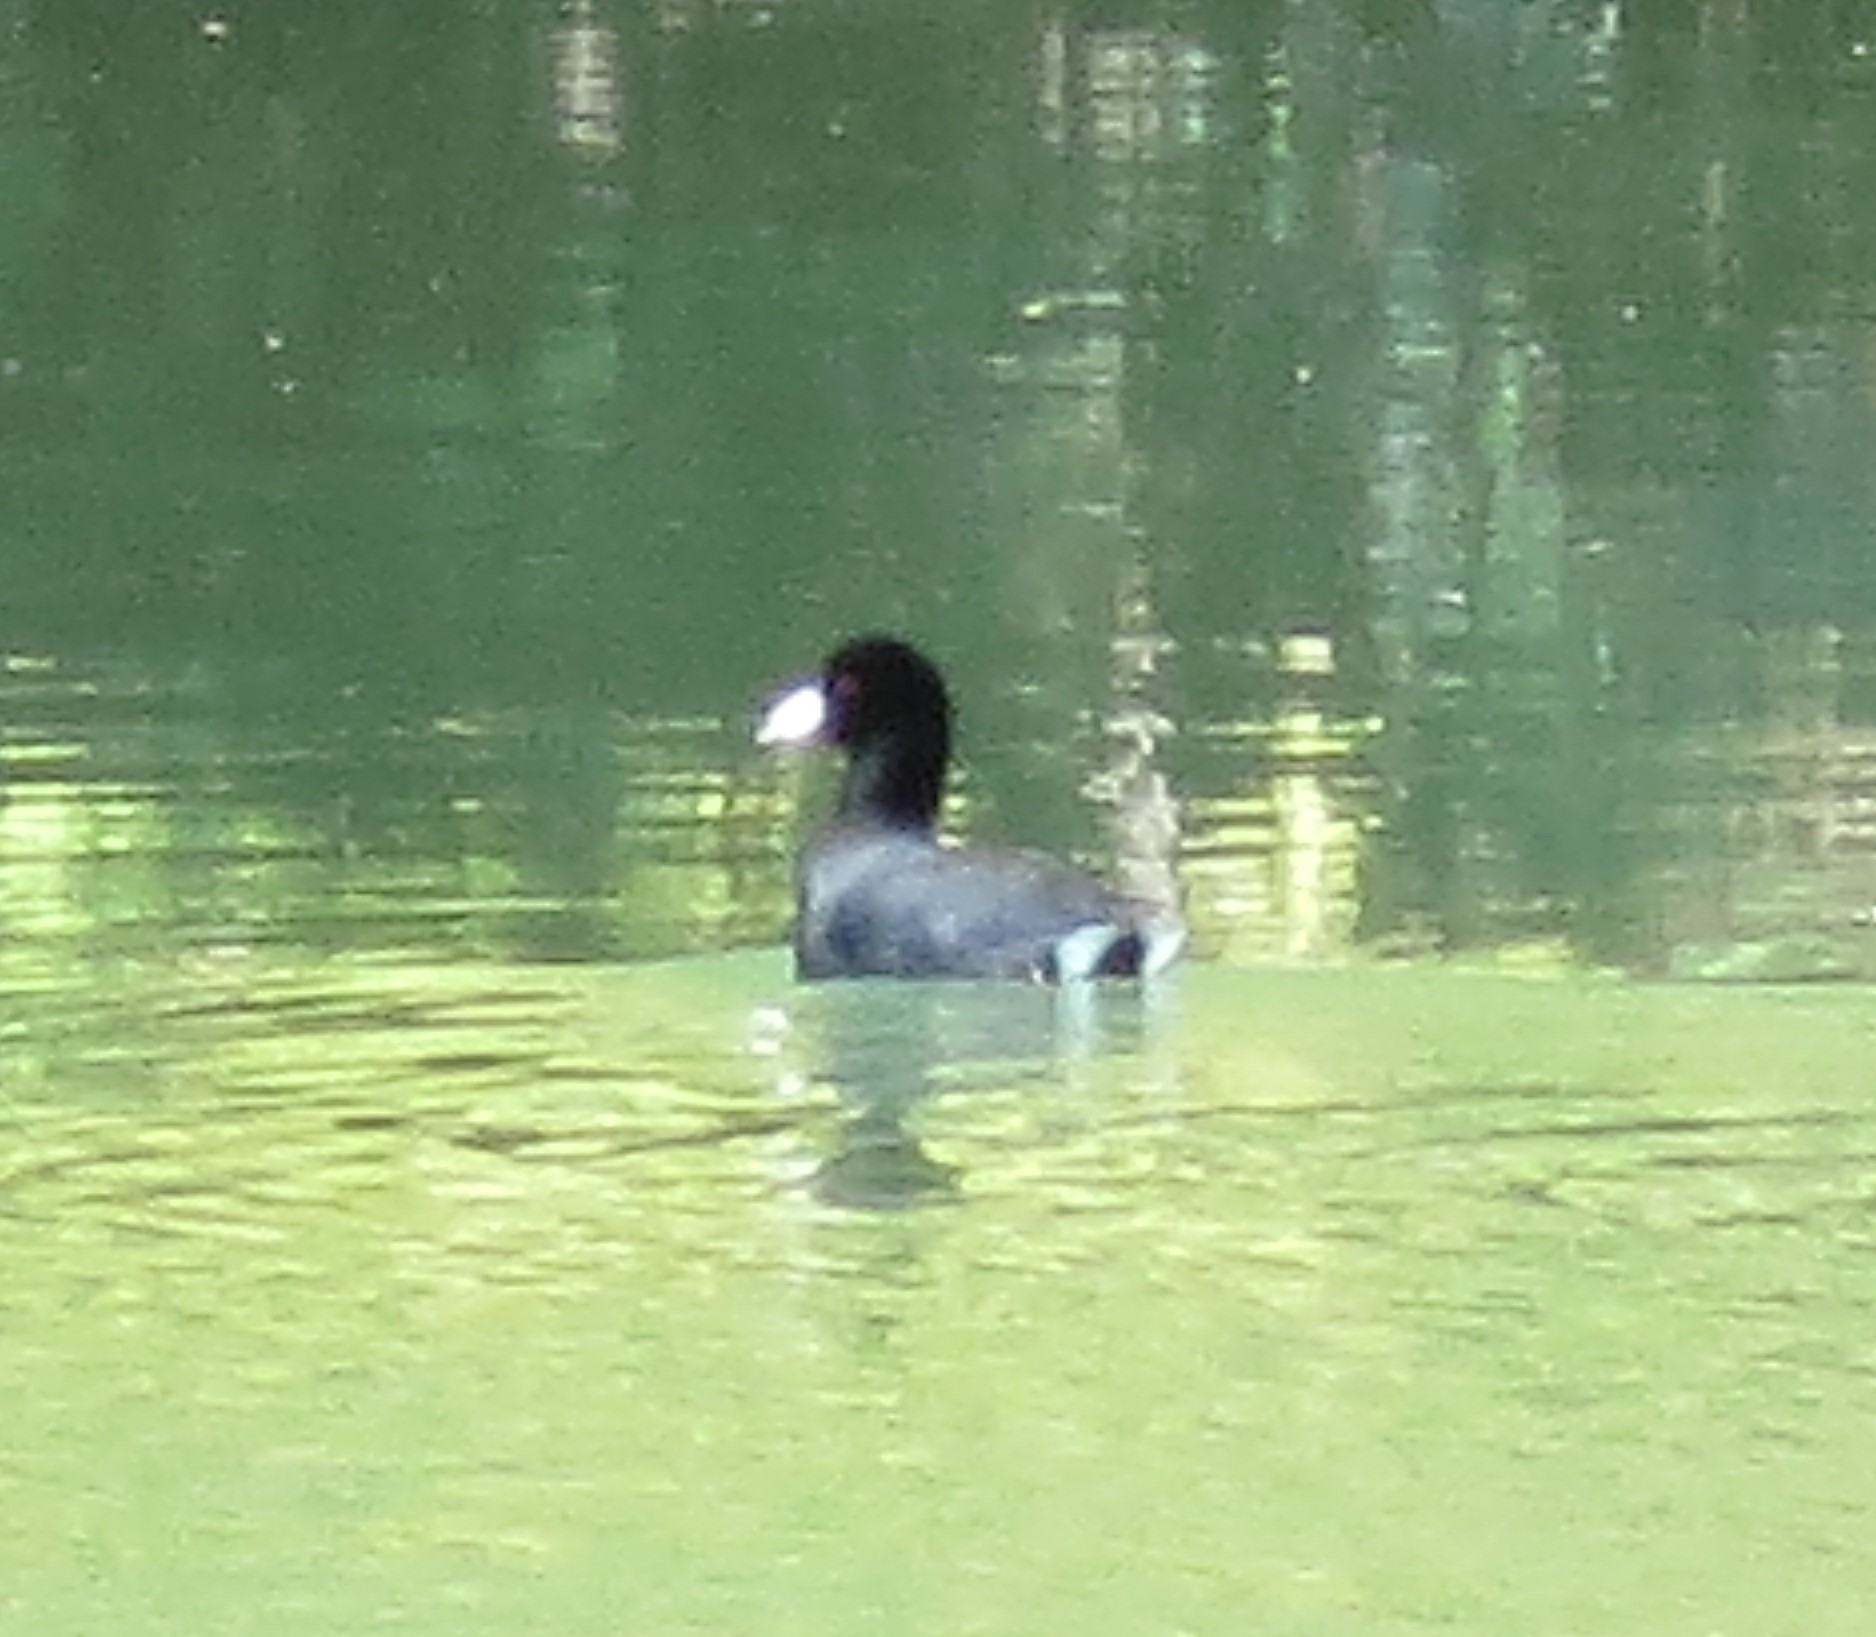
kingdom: Animalia
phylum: Chordata
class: Aves
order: Gruiformes
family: Rallidae
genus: Fulica
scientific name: Fulica americana
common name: American coot
